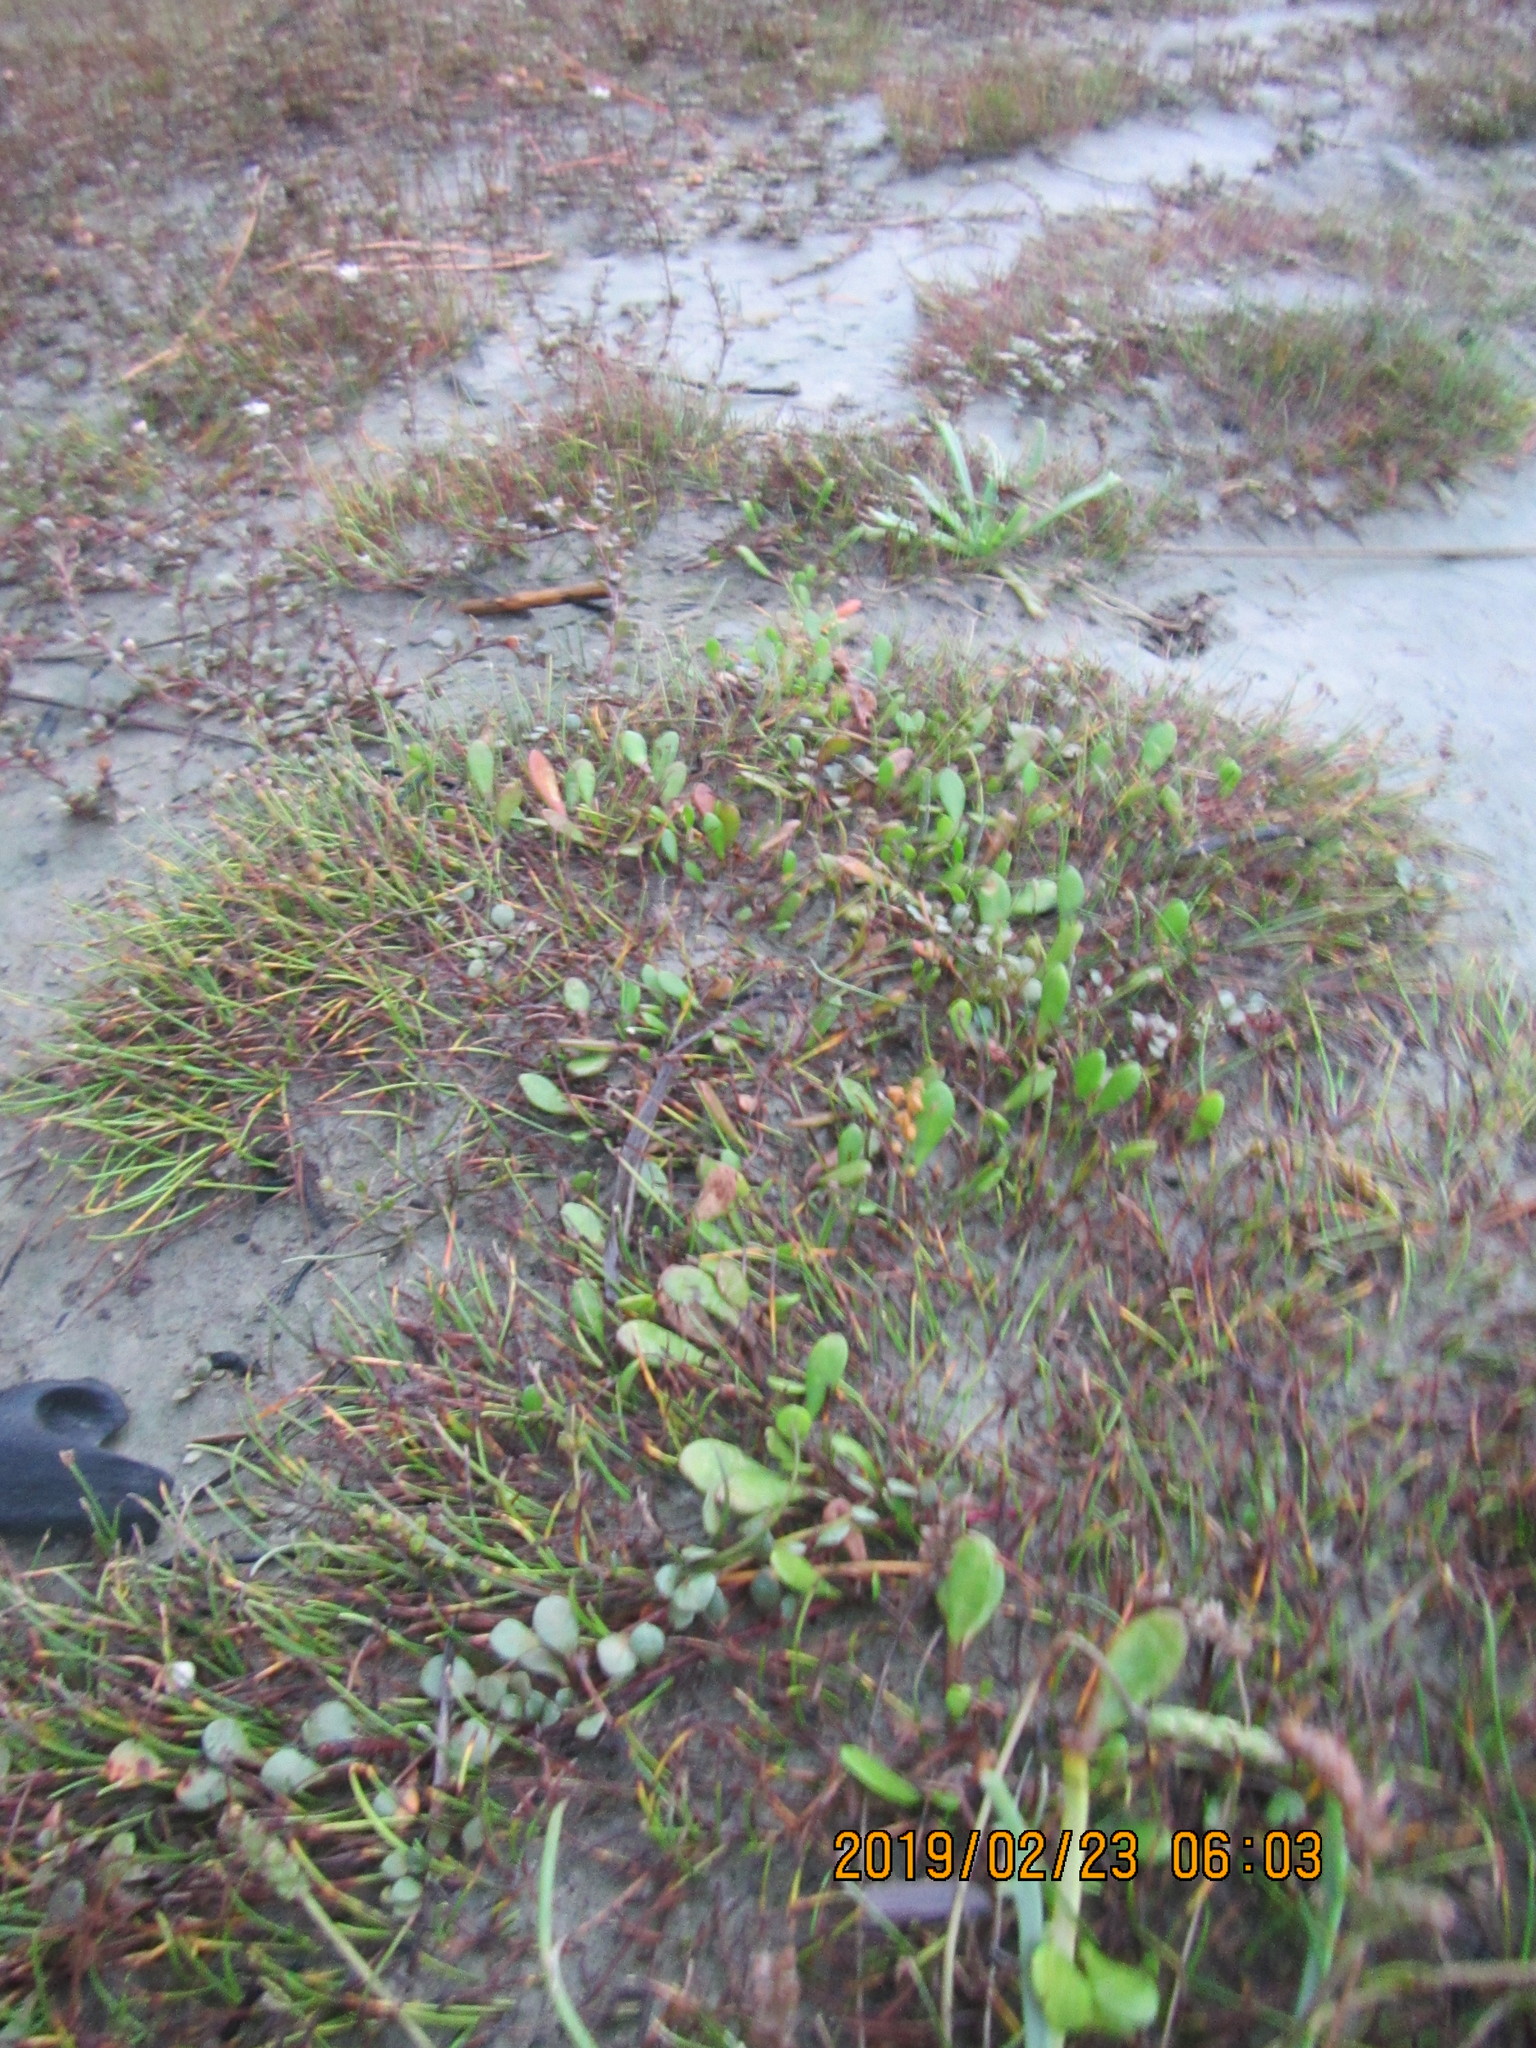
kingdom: Plantae
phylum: Tracheophyta
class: Magnoliopsida
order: Asterales
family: Goodeniaceae
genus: Goodenia
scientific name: Goodenia radicans
